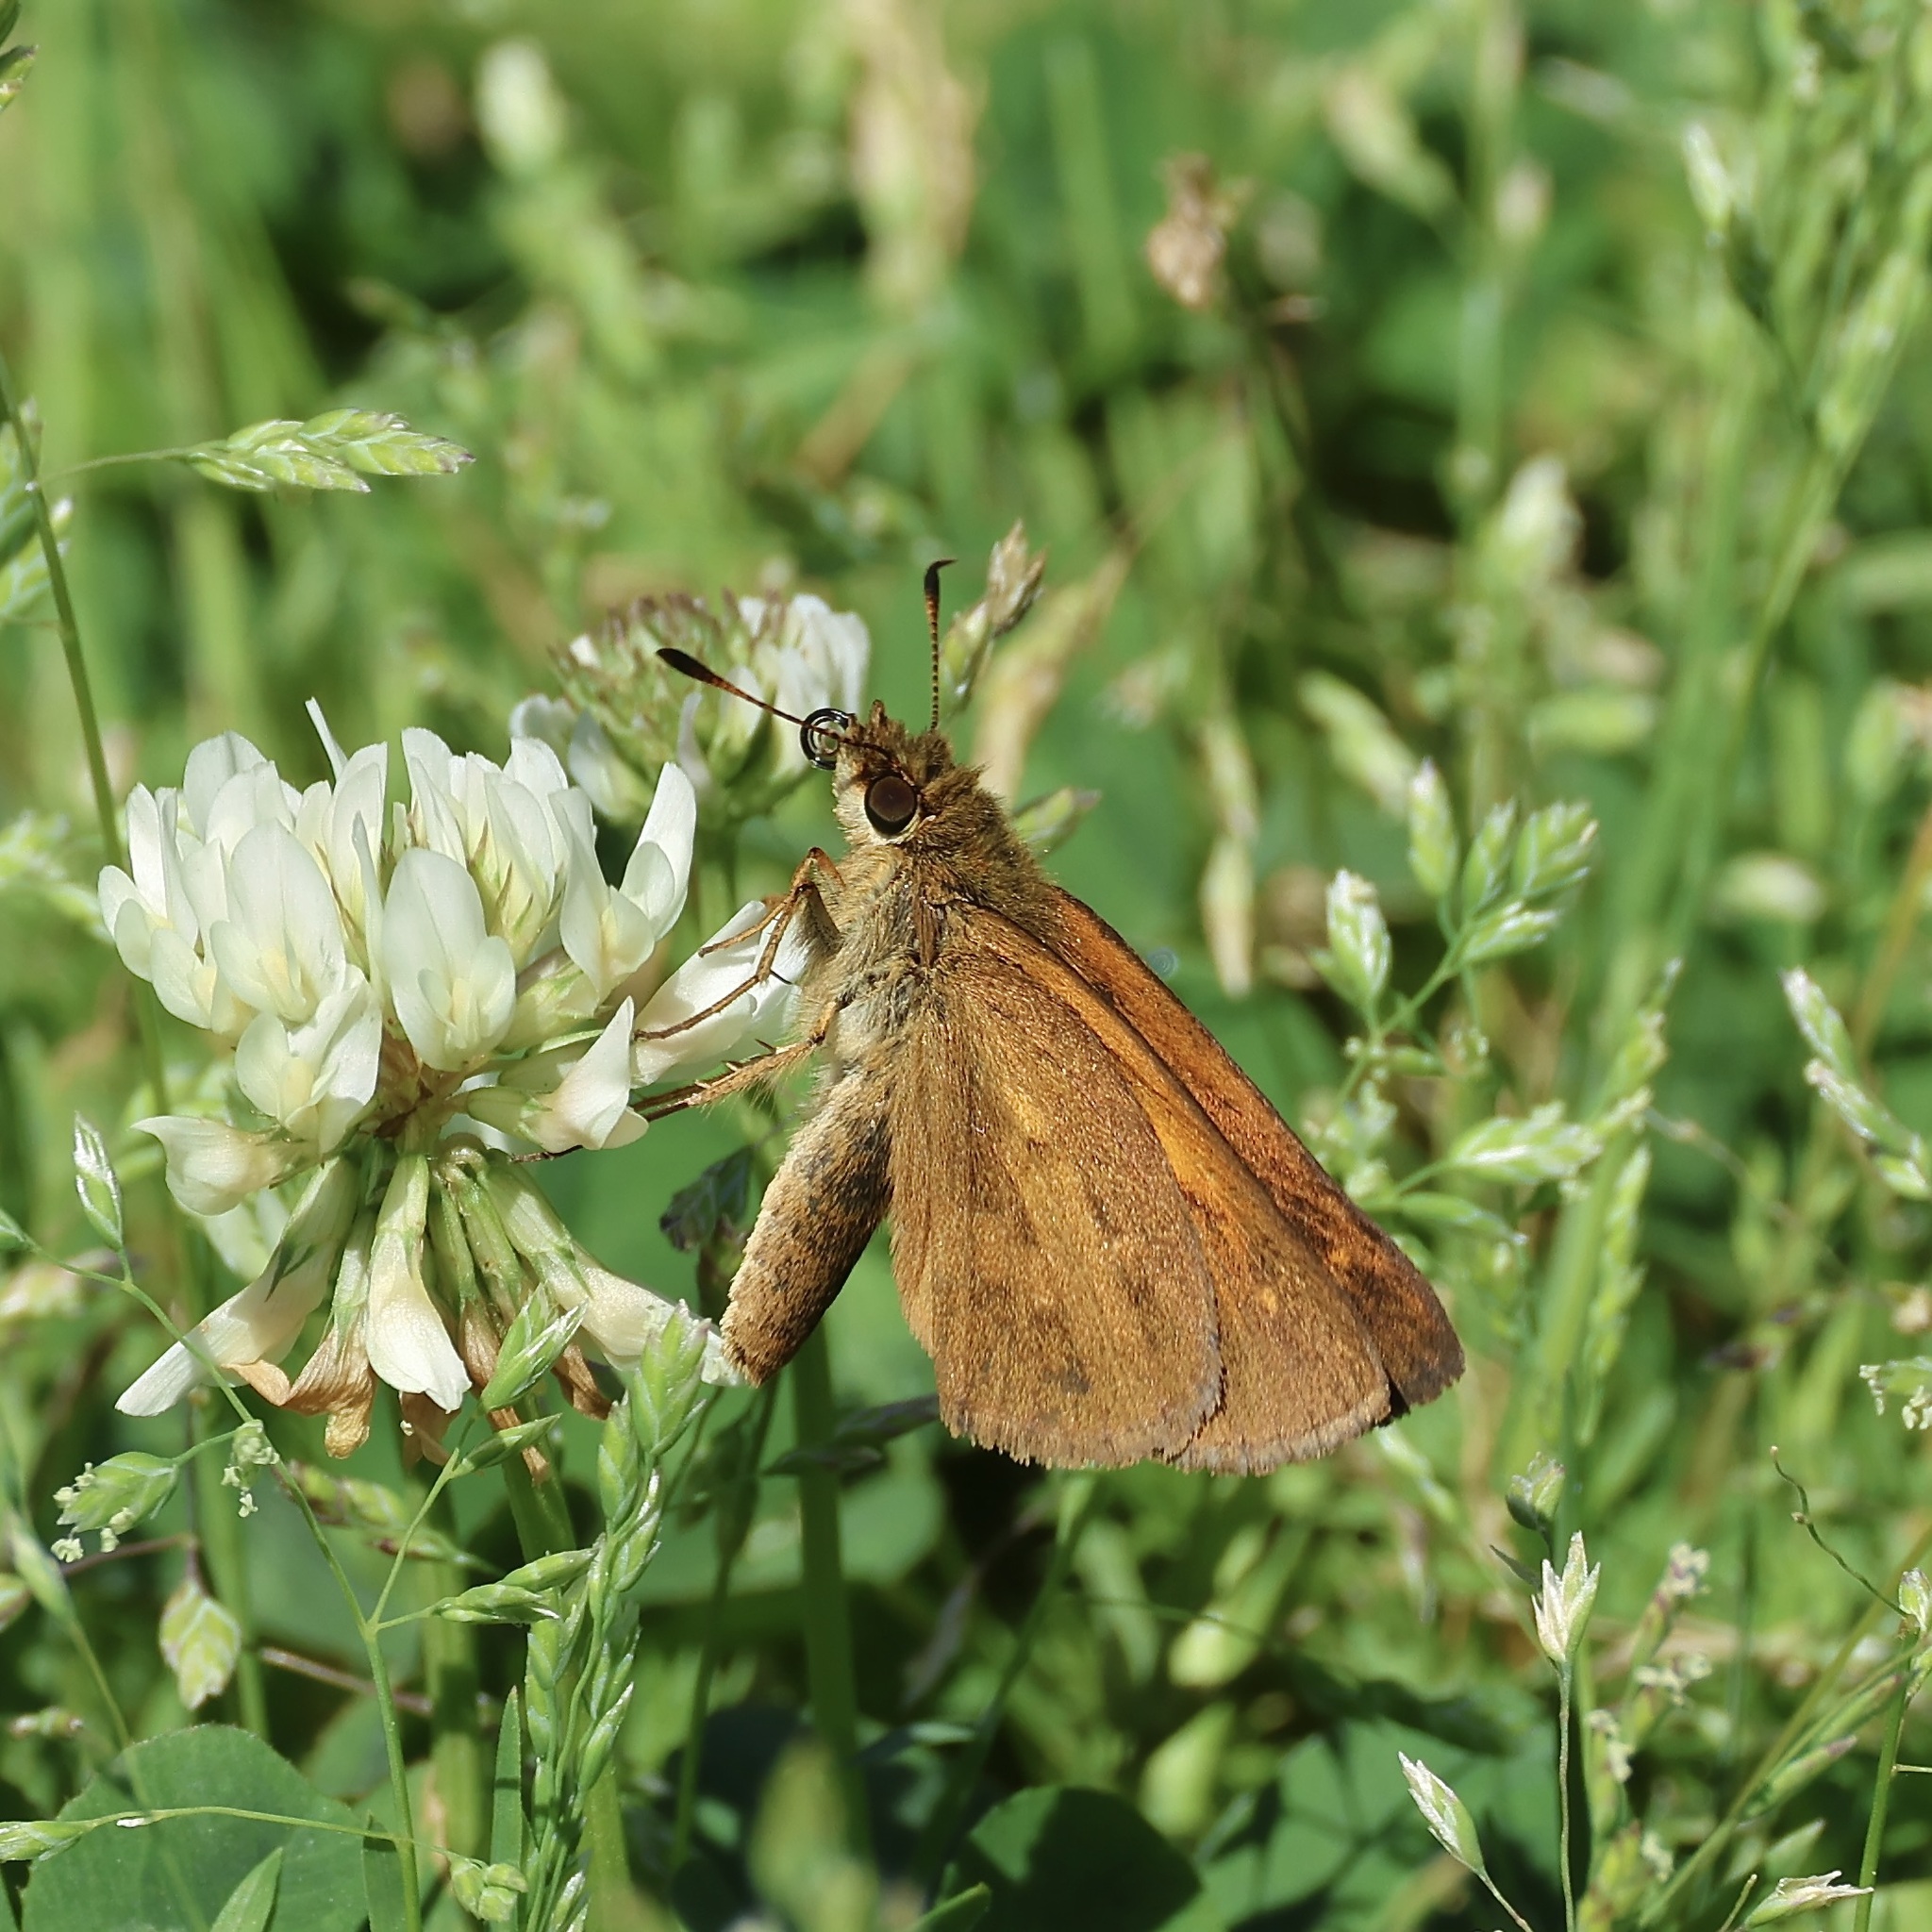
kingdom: Animalia
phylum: Arthropoda
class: Insecta
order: Lepidoptera
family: Hesperiidae
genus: Poanes
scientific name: Poanes viator
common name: Broad-winged skipper
